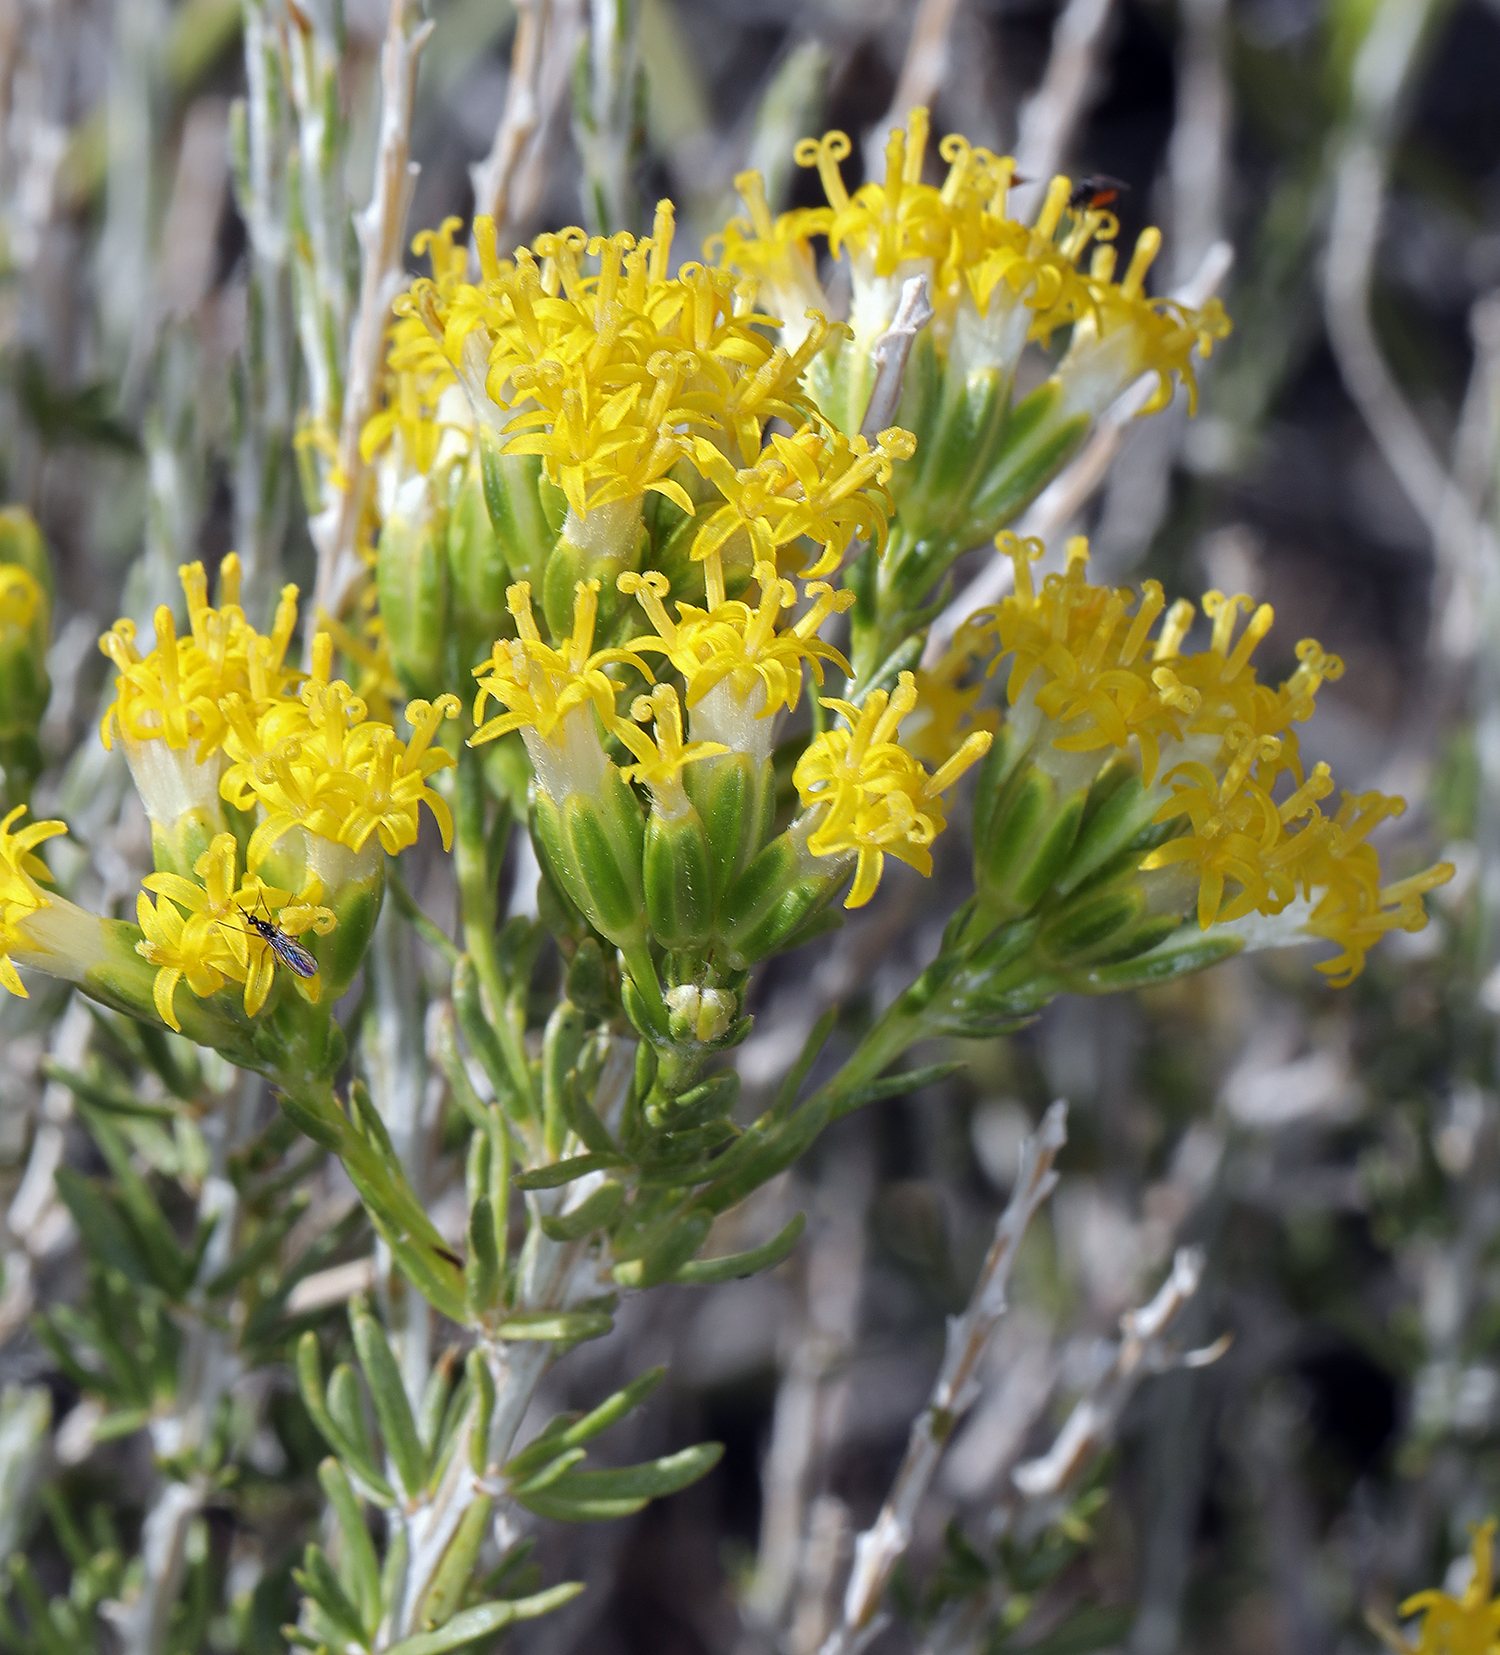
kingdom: Plantae
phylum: Tracheophyta
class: Magnoliopsida
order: Asterales
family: Asteraceae
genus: Tetradymia
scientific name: Tetradymia glabrata
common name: Smooth tetradymia
